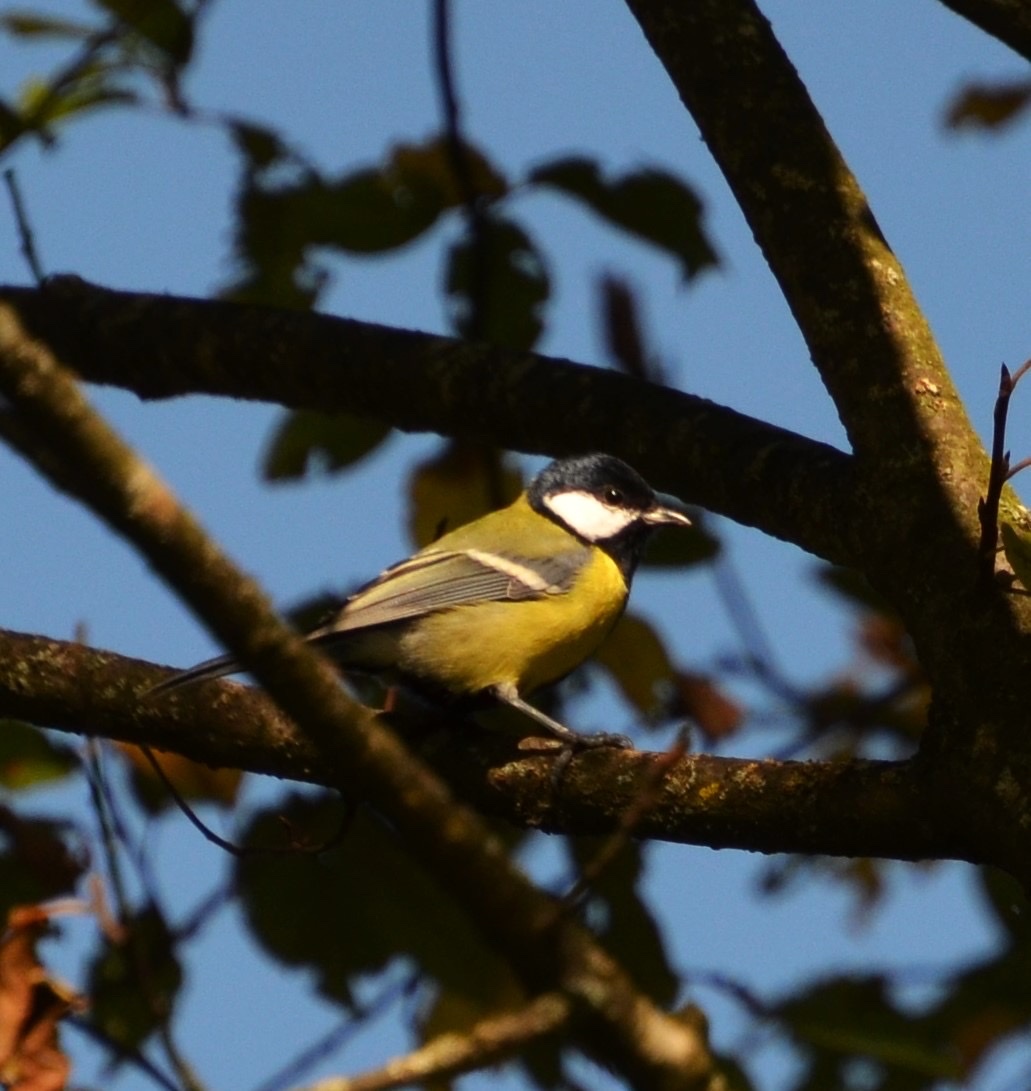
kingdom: Animalia
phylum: Chordata
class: Aves
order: Passeriformes
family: Paridae
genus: Parus
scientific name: Parus major
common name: Great tit
